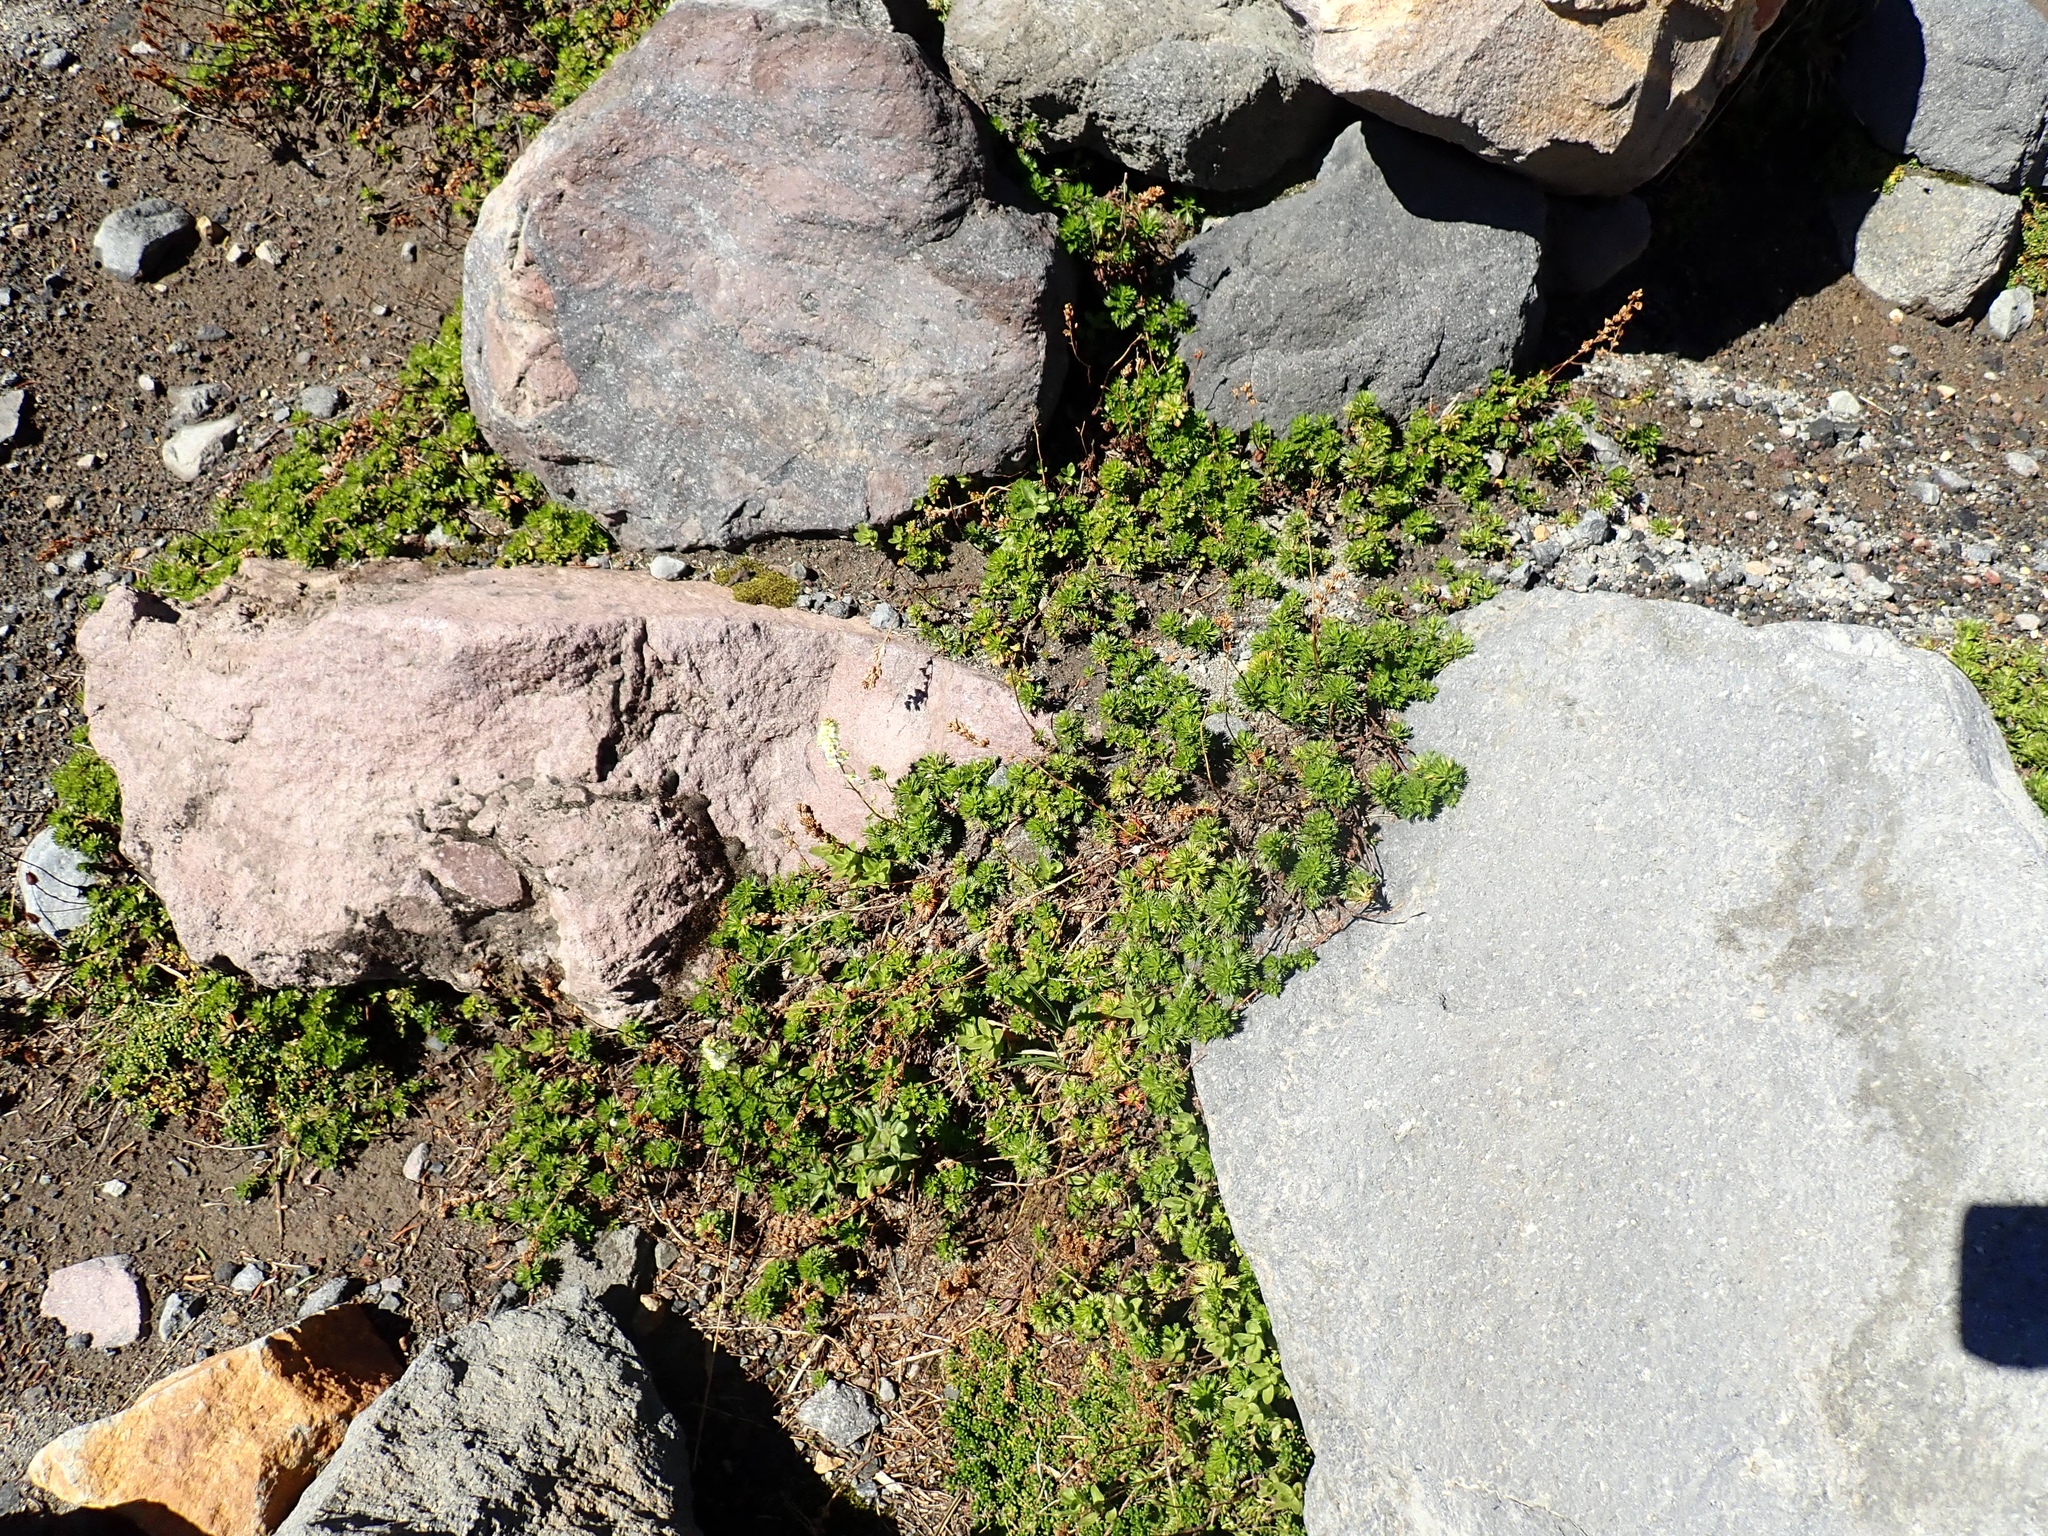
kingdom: Plantae
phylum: Tracheophyta
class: Magnoliopsida
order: Rosales
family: Rosaceae
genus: Luetkea
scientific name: Luetkea pectinata
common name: Partridgefoot
